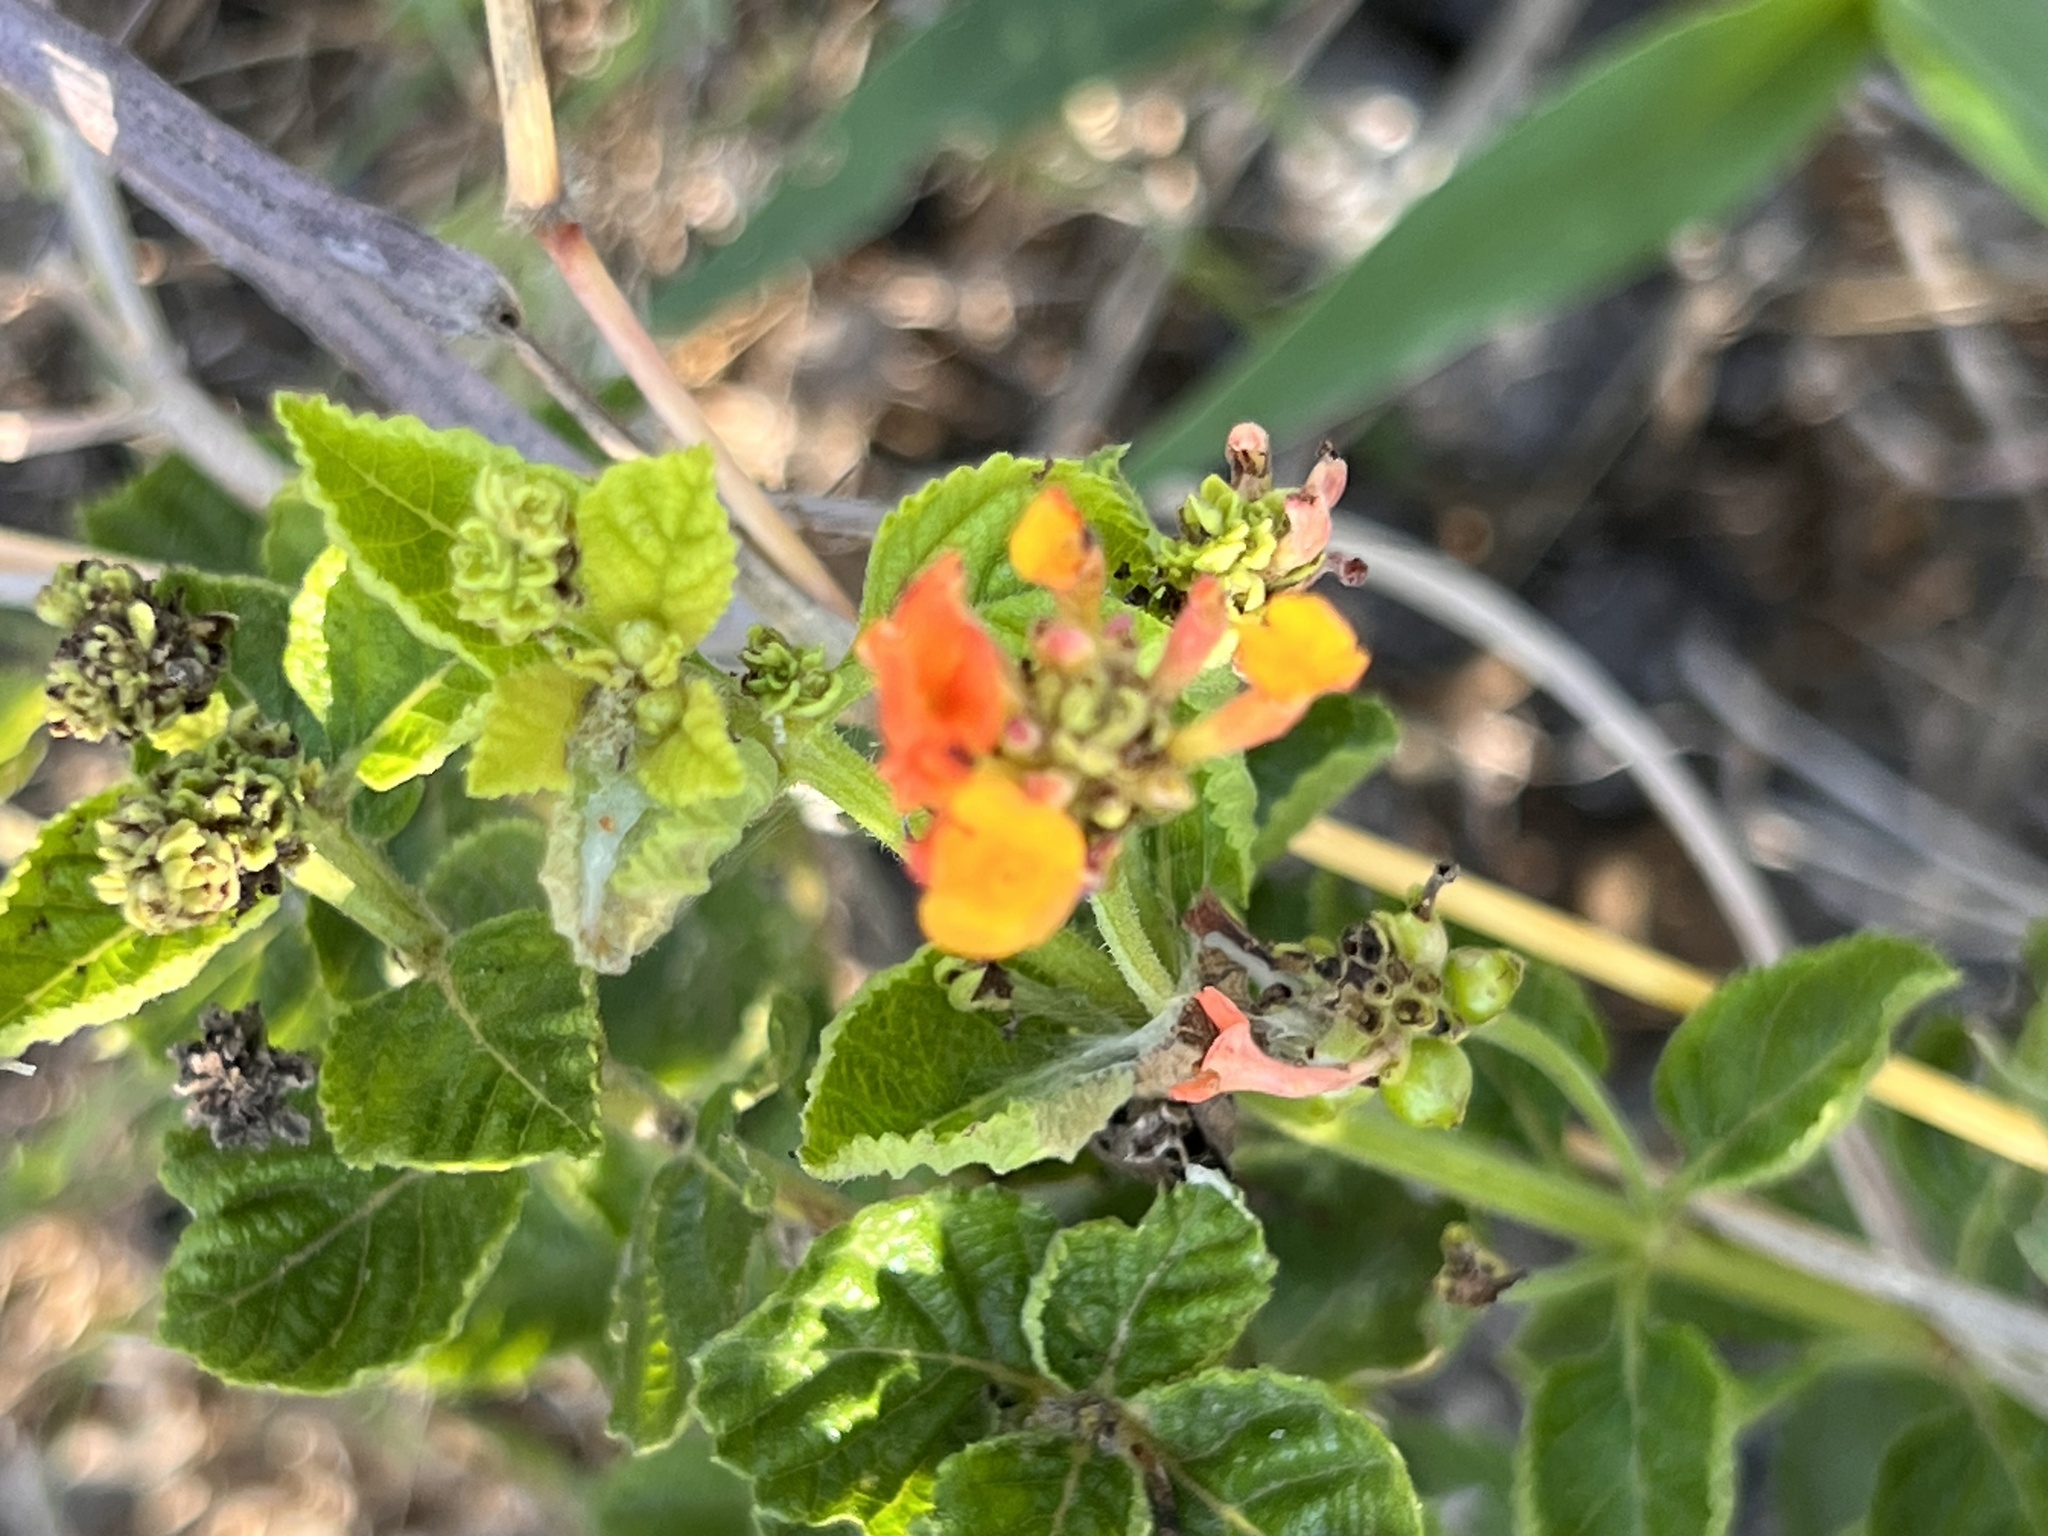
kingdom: Plantae
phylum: Tracheophyta
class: Magnoliopsida
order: Lamiales
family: Verbenaceae
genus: Lantana
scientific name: Lantana urticoides
